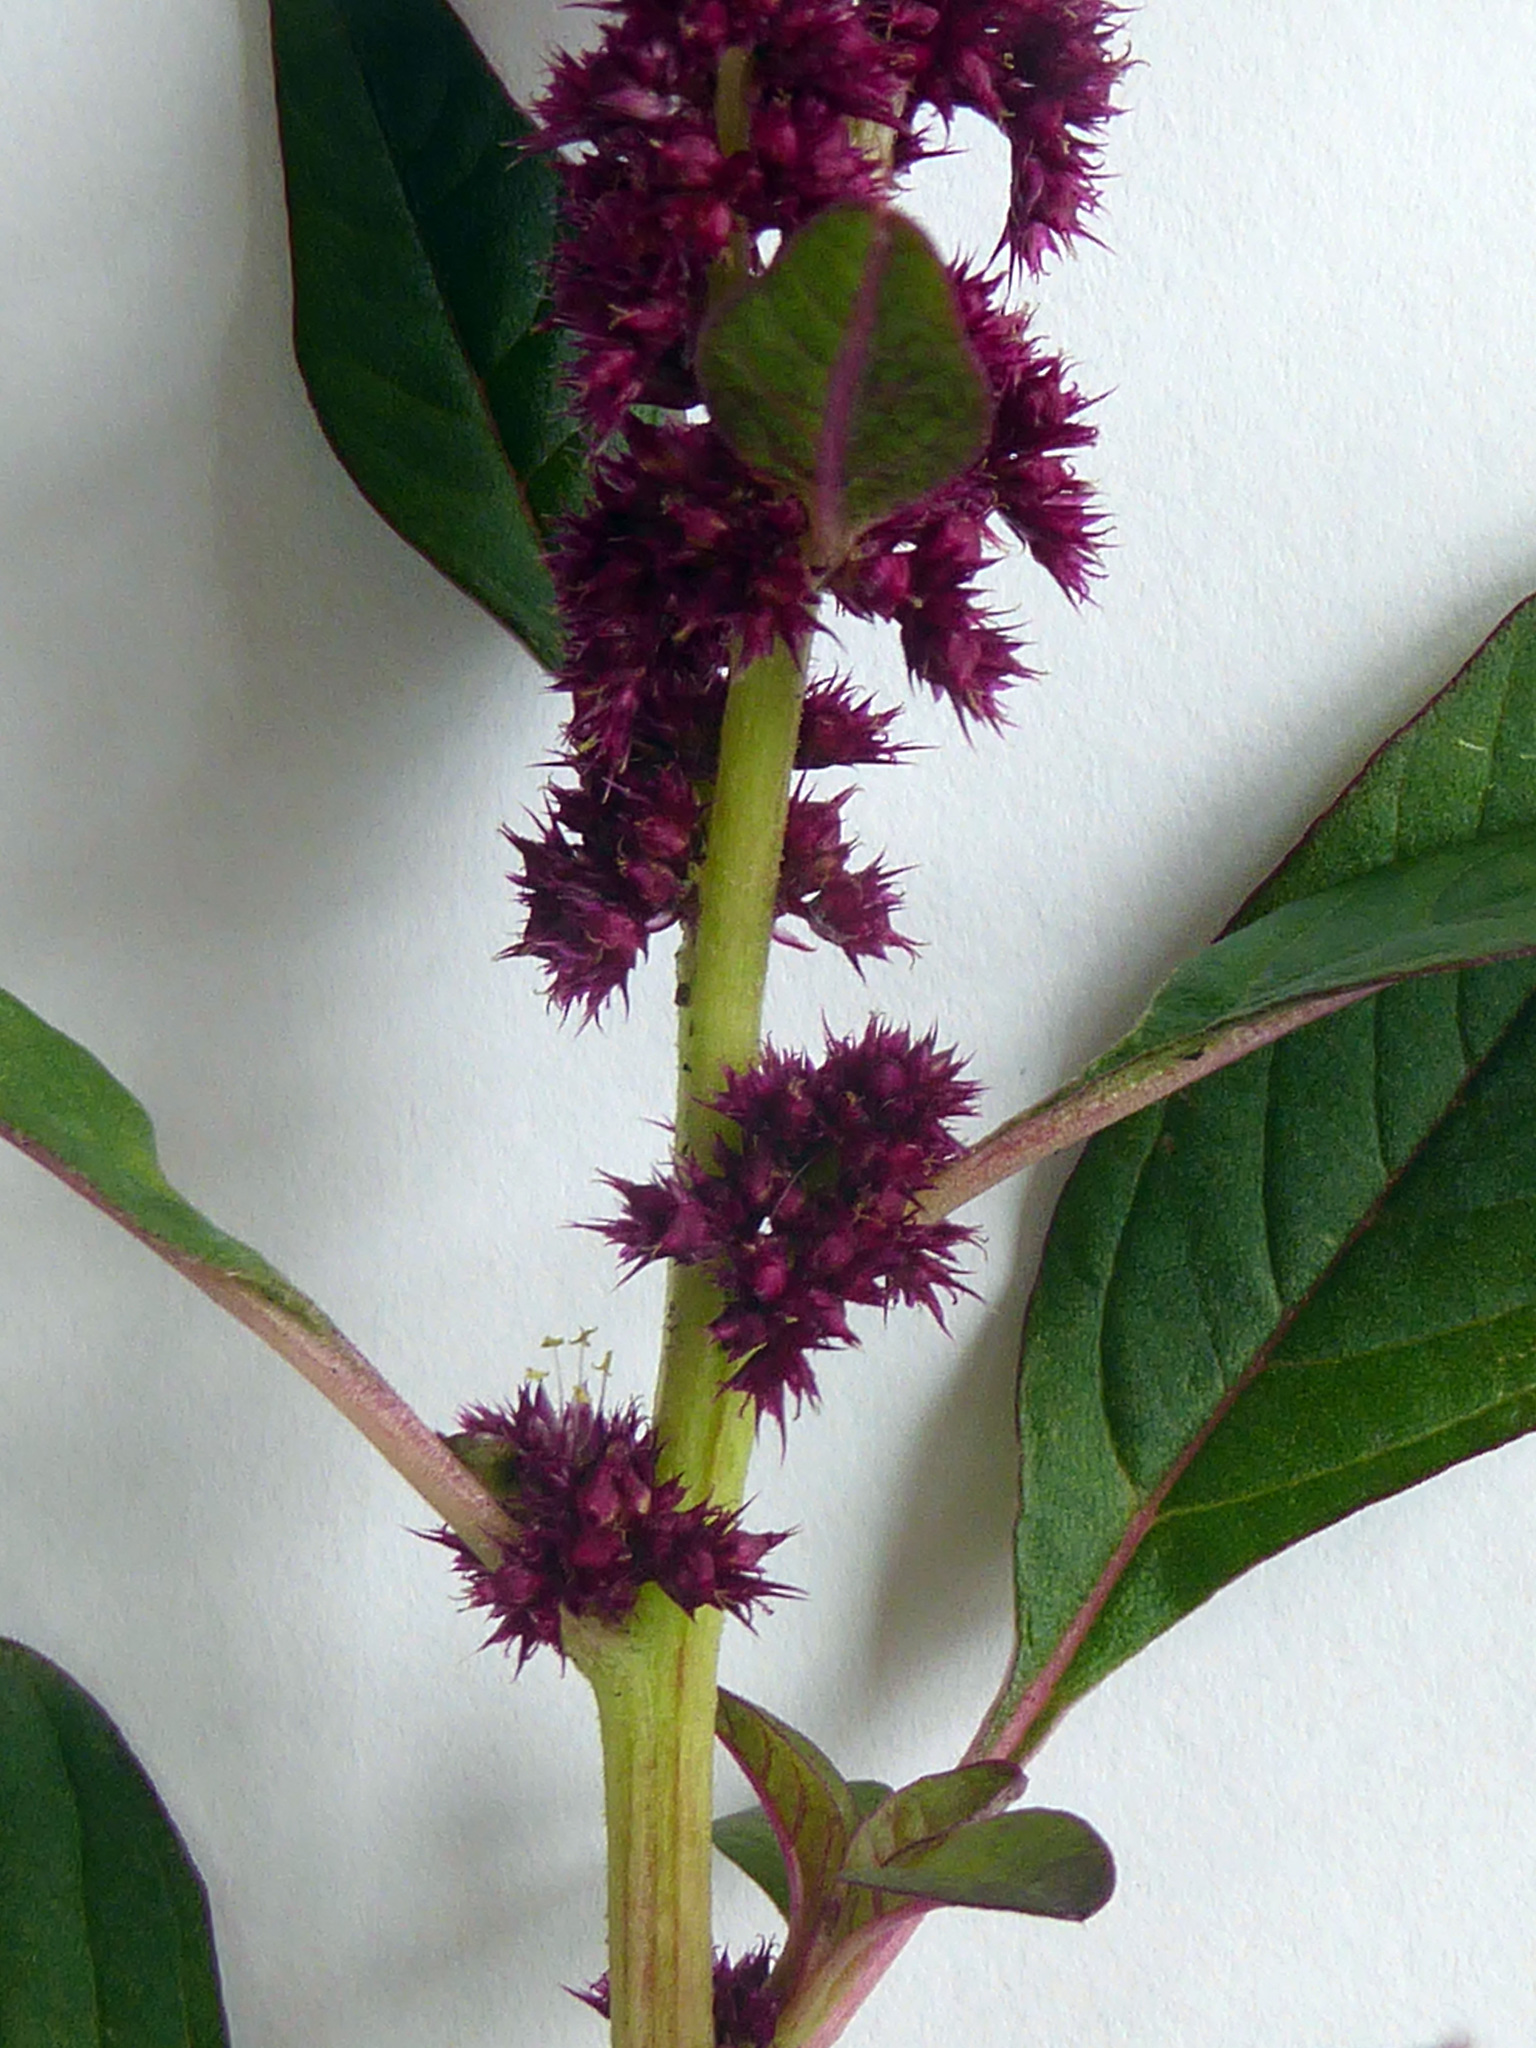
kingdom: Plantae
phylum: Tracheophyta
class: Magnoliopsida
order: Caryophyllales
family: Amaranthaceae
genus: Amaranthus
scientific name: Amaranthus cruentus
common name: Purple amaranth
